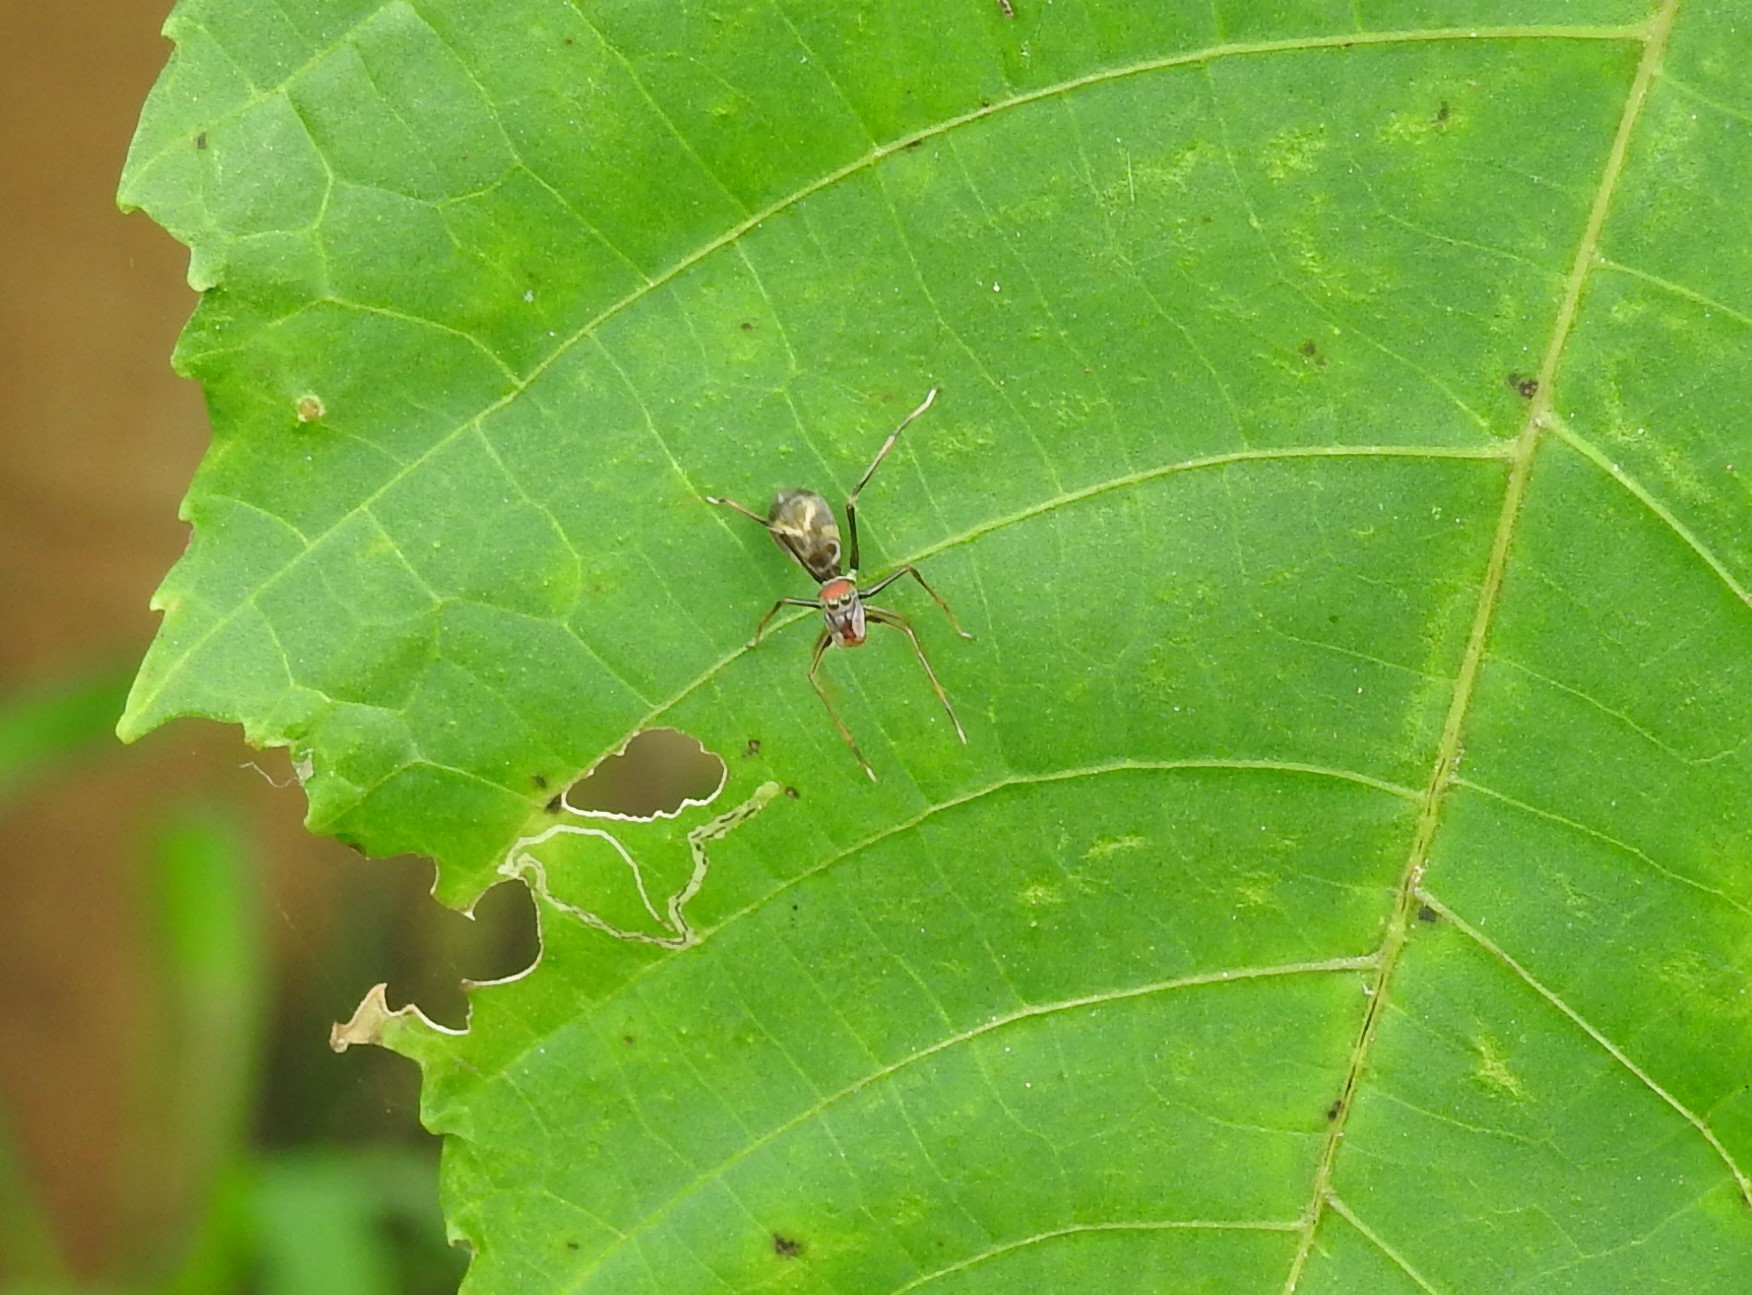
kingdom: Animalia
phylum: Arthropoda
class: Arachnida
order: Araneae
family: Salticidae
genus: Myrmaplata
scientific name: Myrmaplata plataleoides
